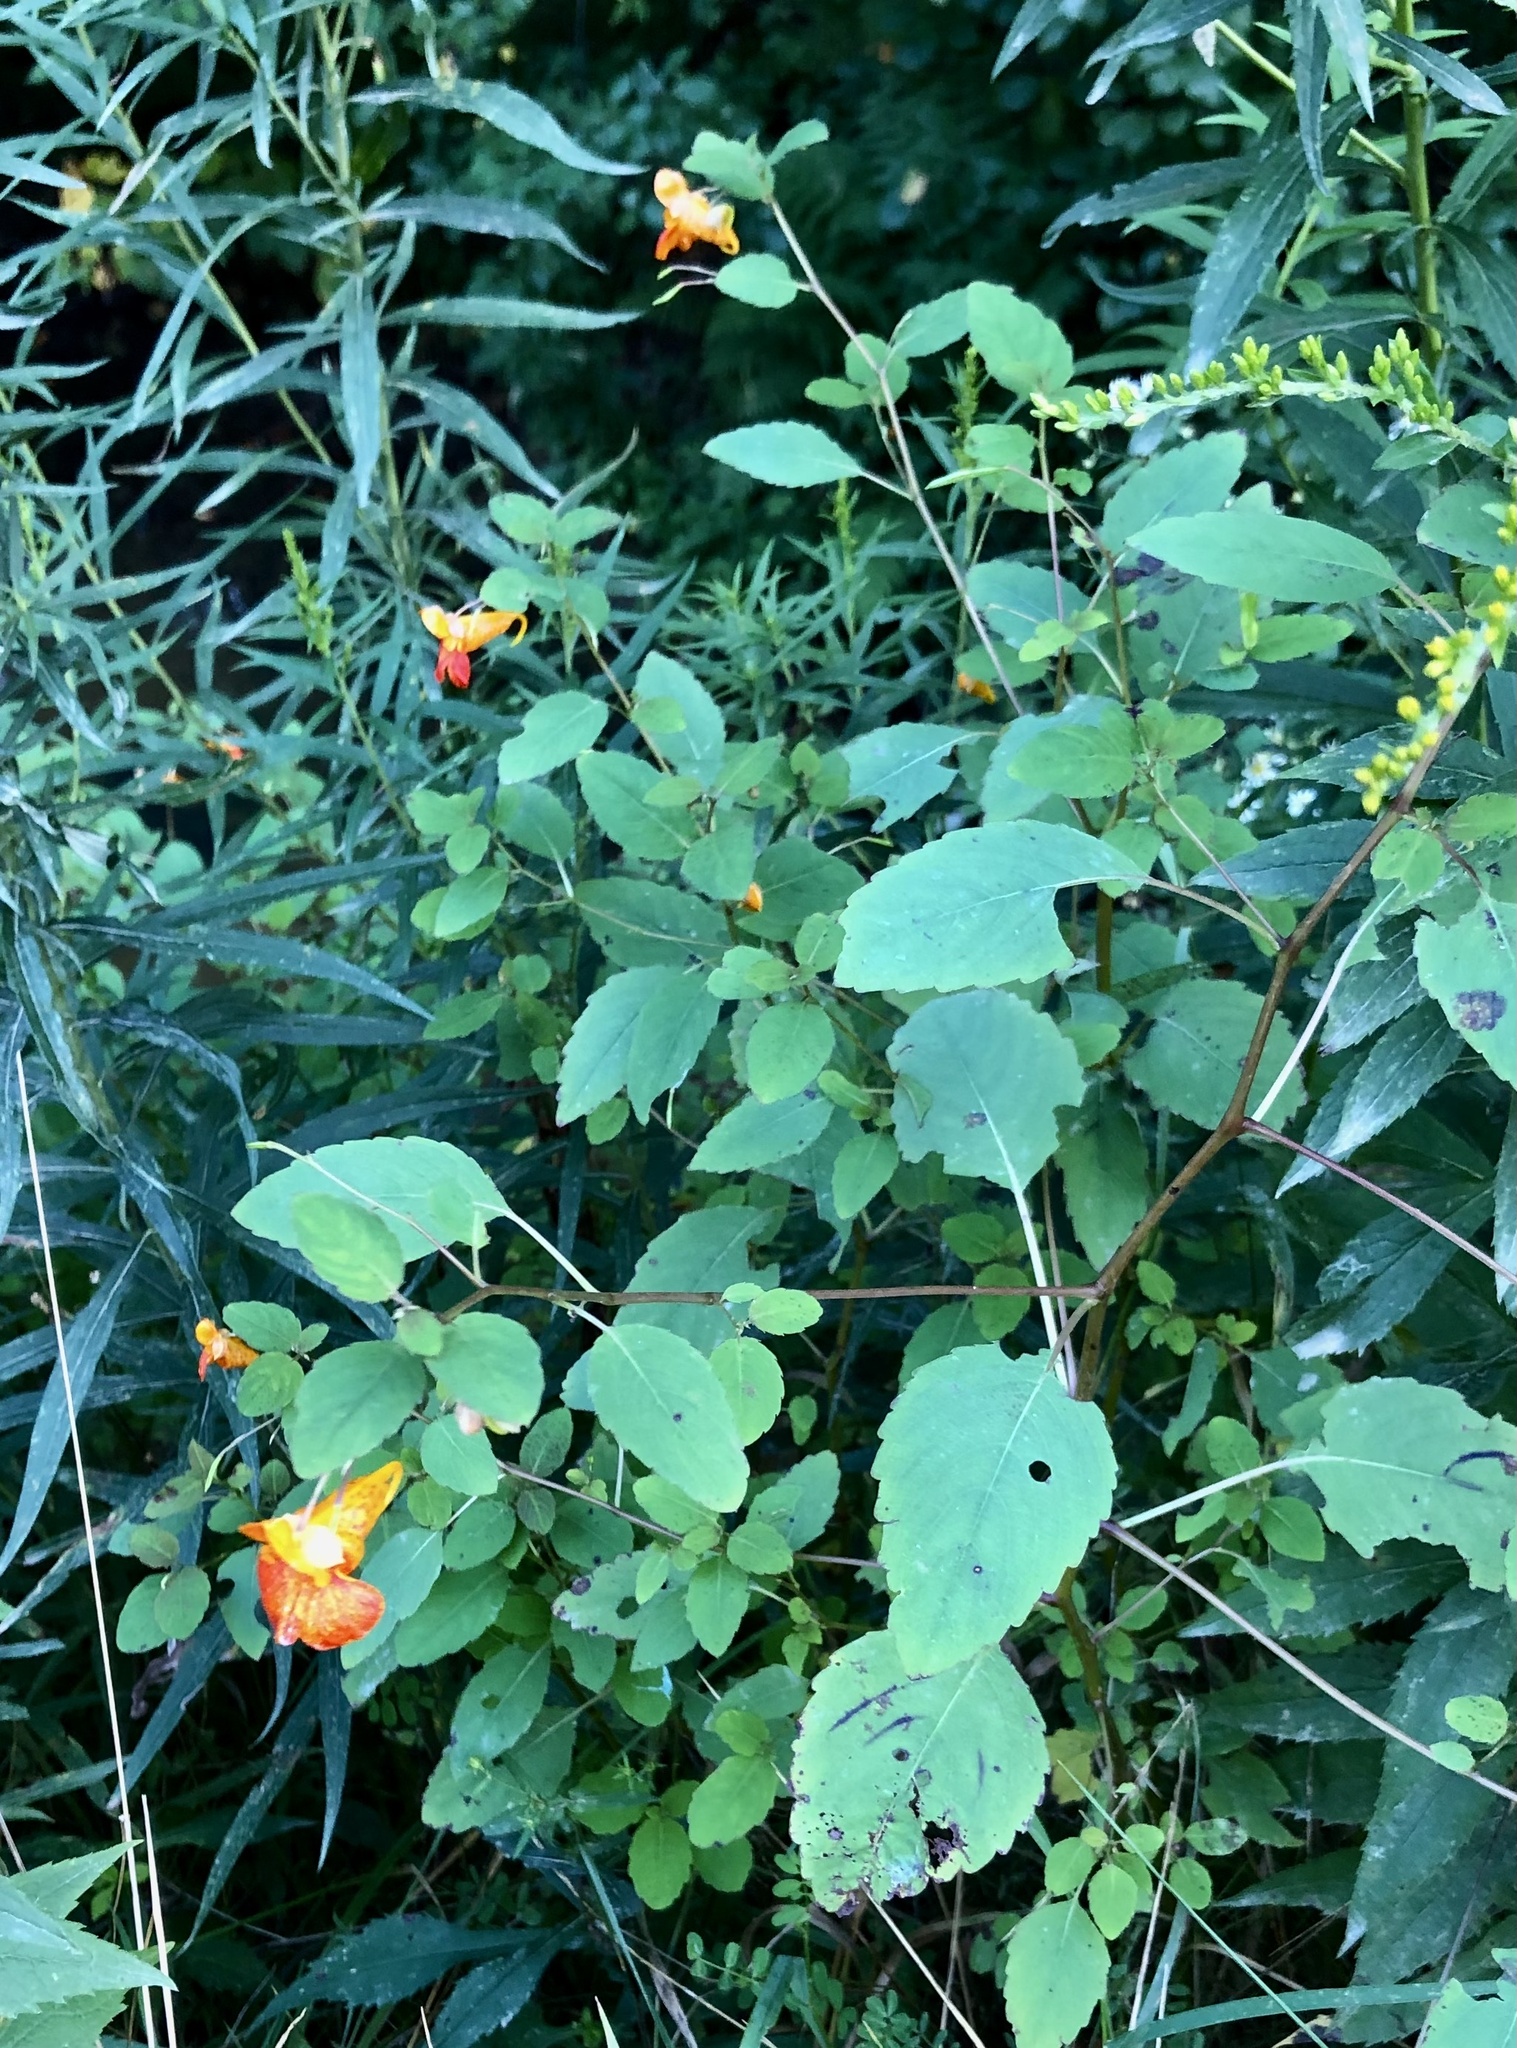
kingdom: Plantae
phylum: Tracheophyta
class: Magnoliopsida
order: Ericales
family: Balsaminaceae
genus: Impatiens
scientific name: Impatiens capensis
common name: Orange balsam
